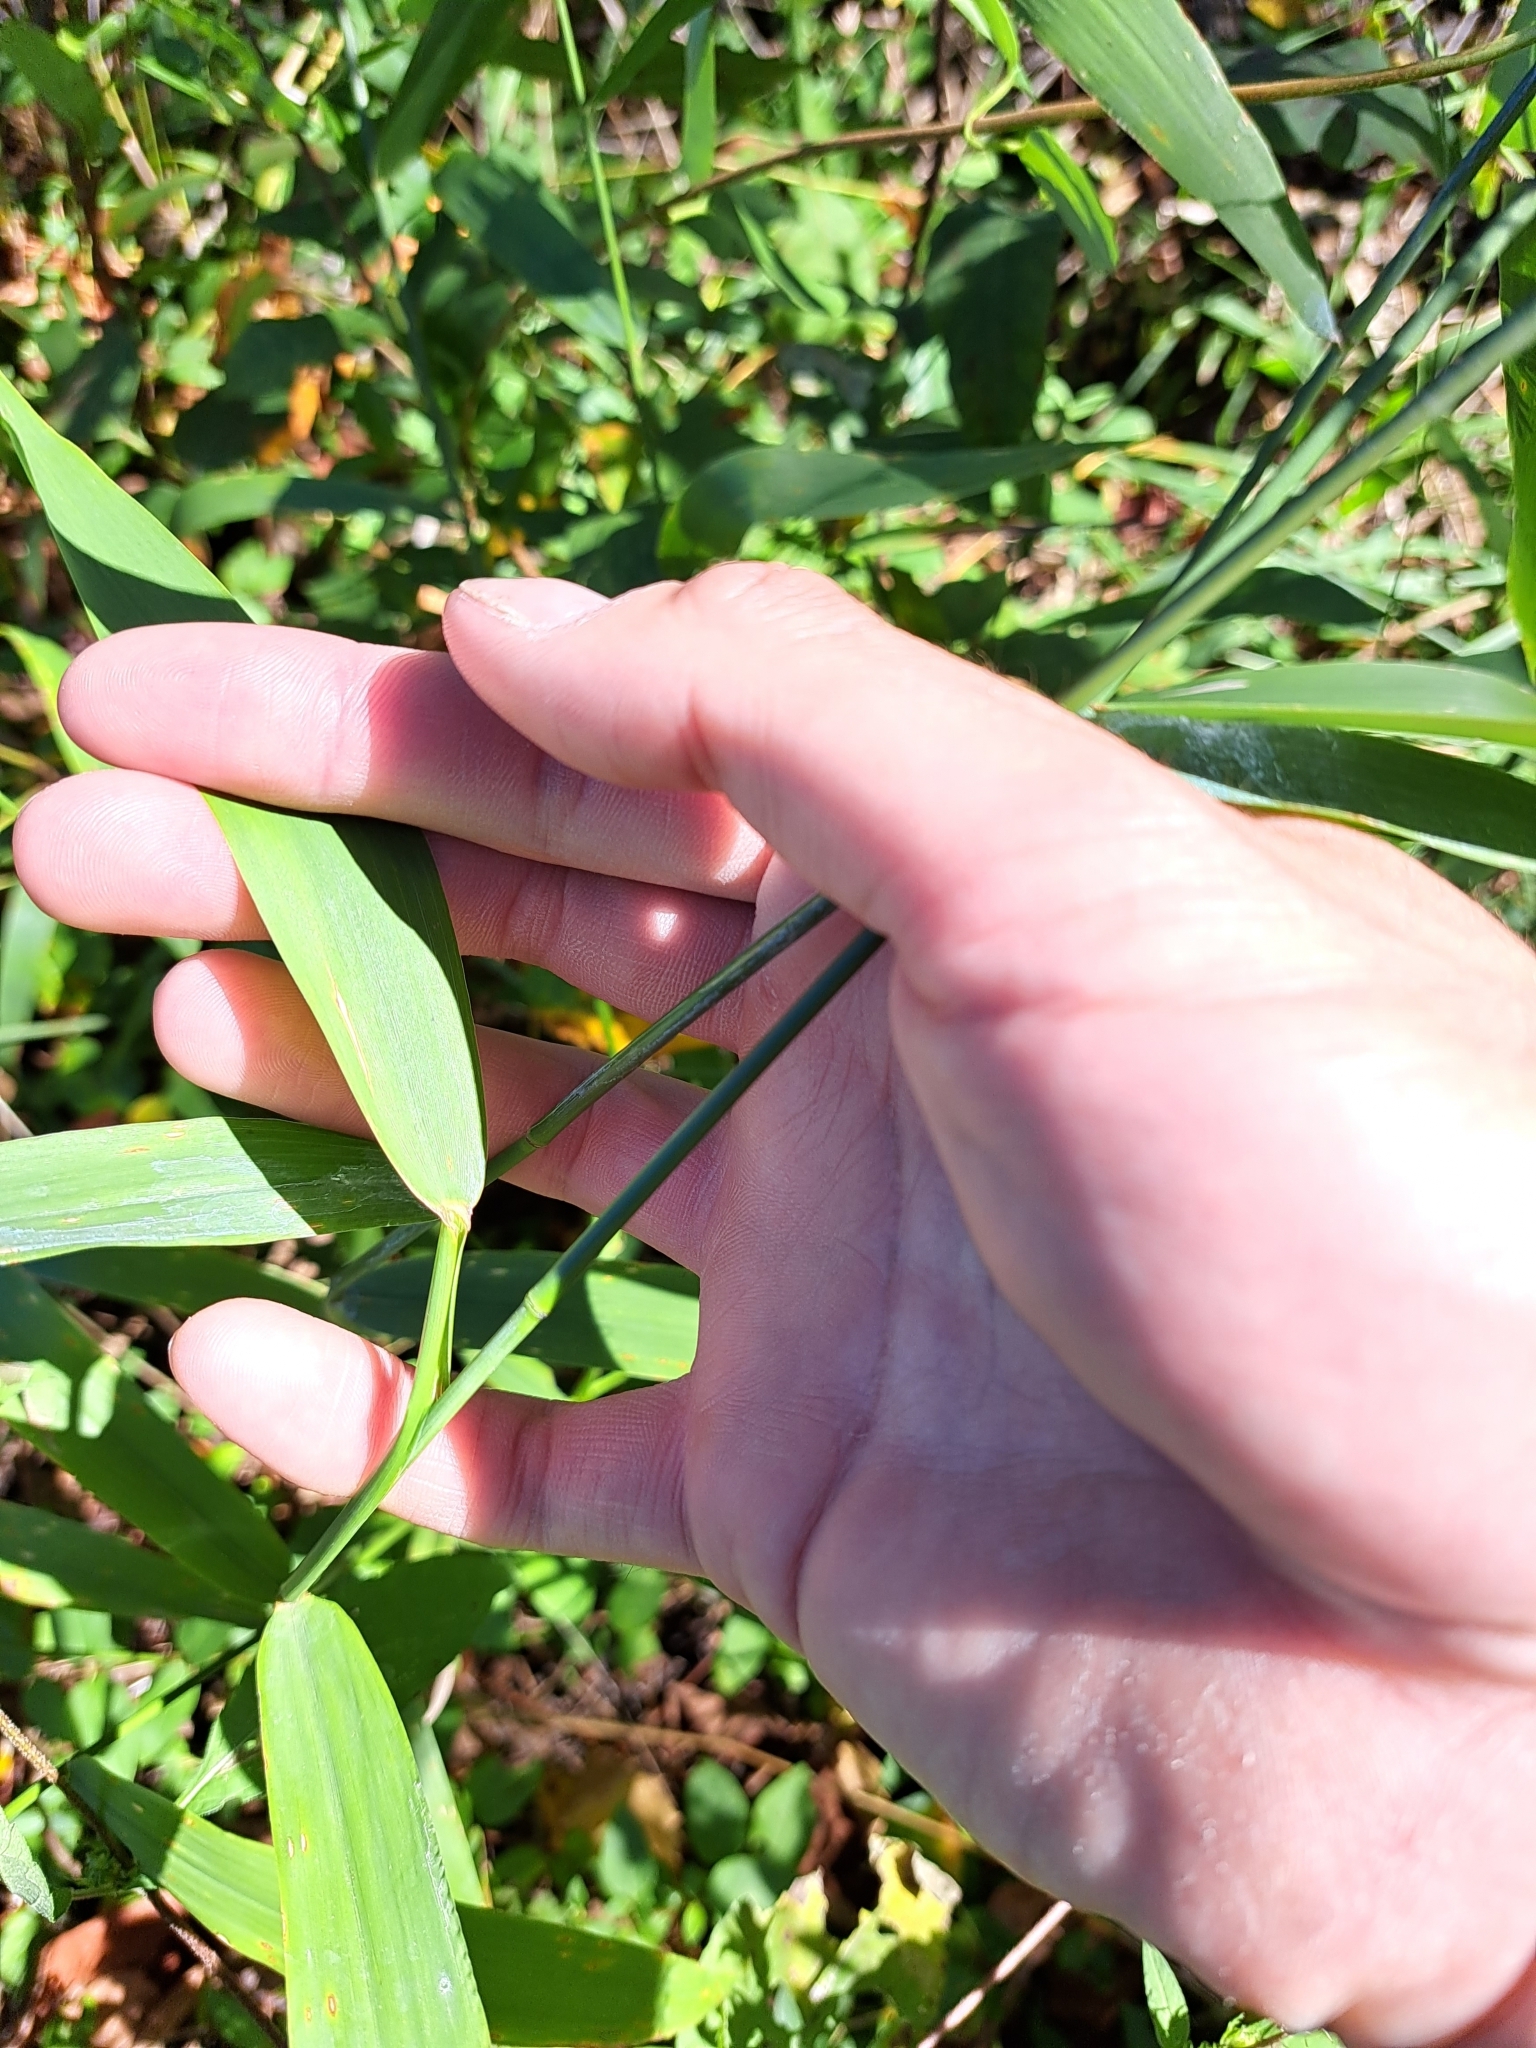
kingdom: Plantae
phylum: Tracheophyta
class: Liliopsida
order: Poales
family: Poaceae
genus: Chasmanthium
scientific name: Chasmanthium latifolium
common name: Broad-leaved chasmanthium
